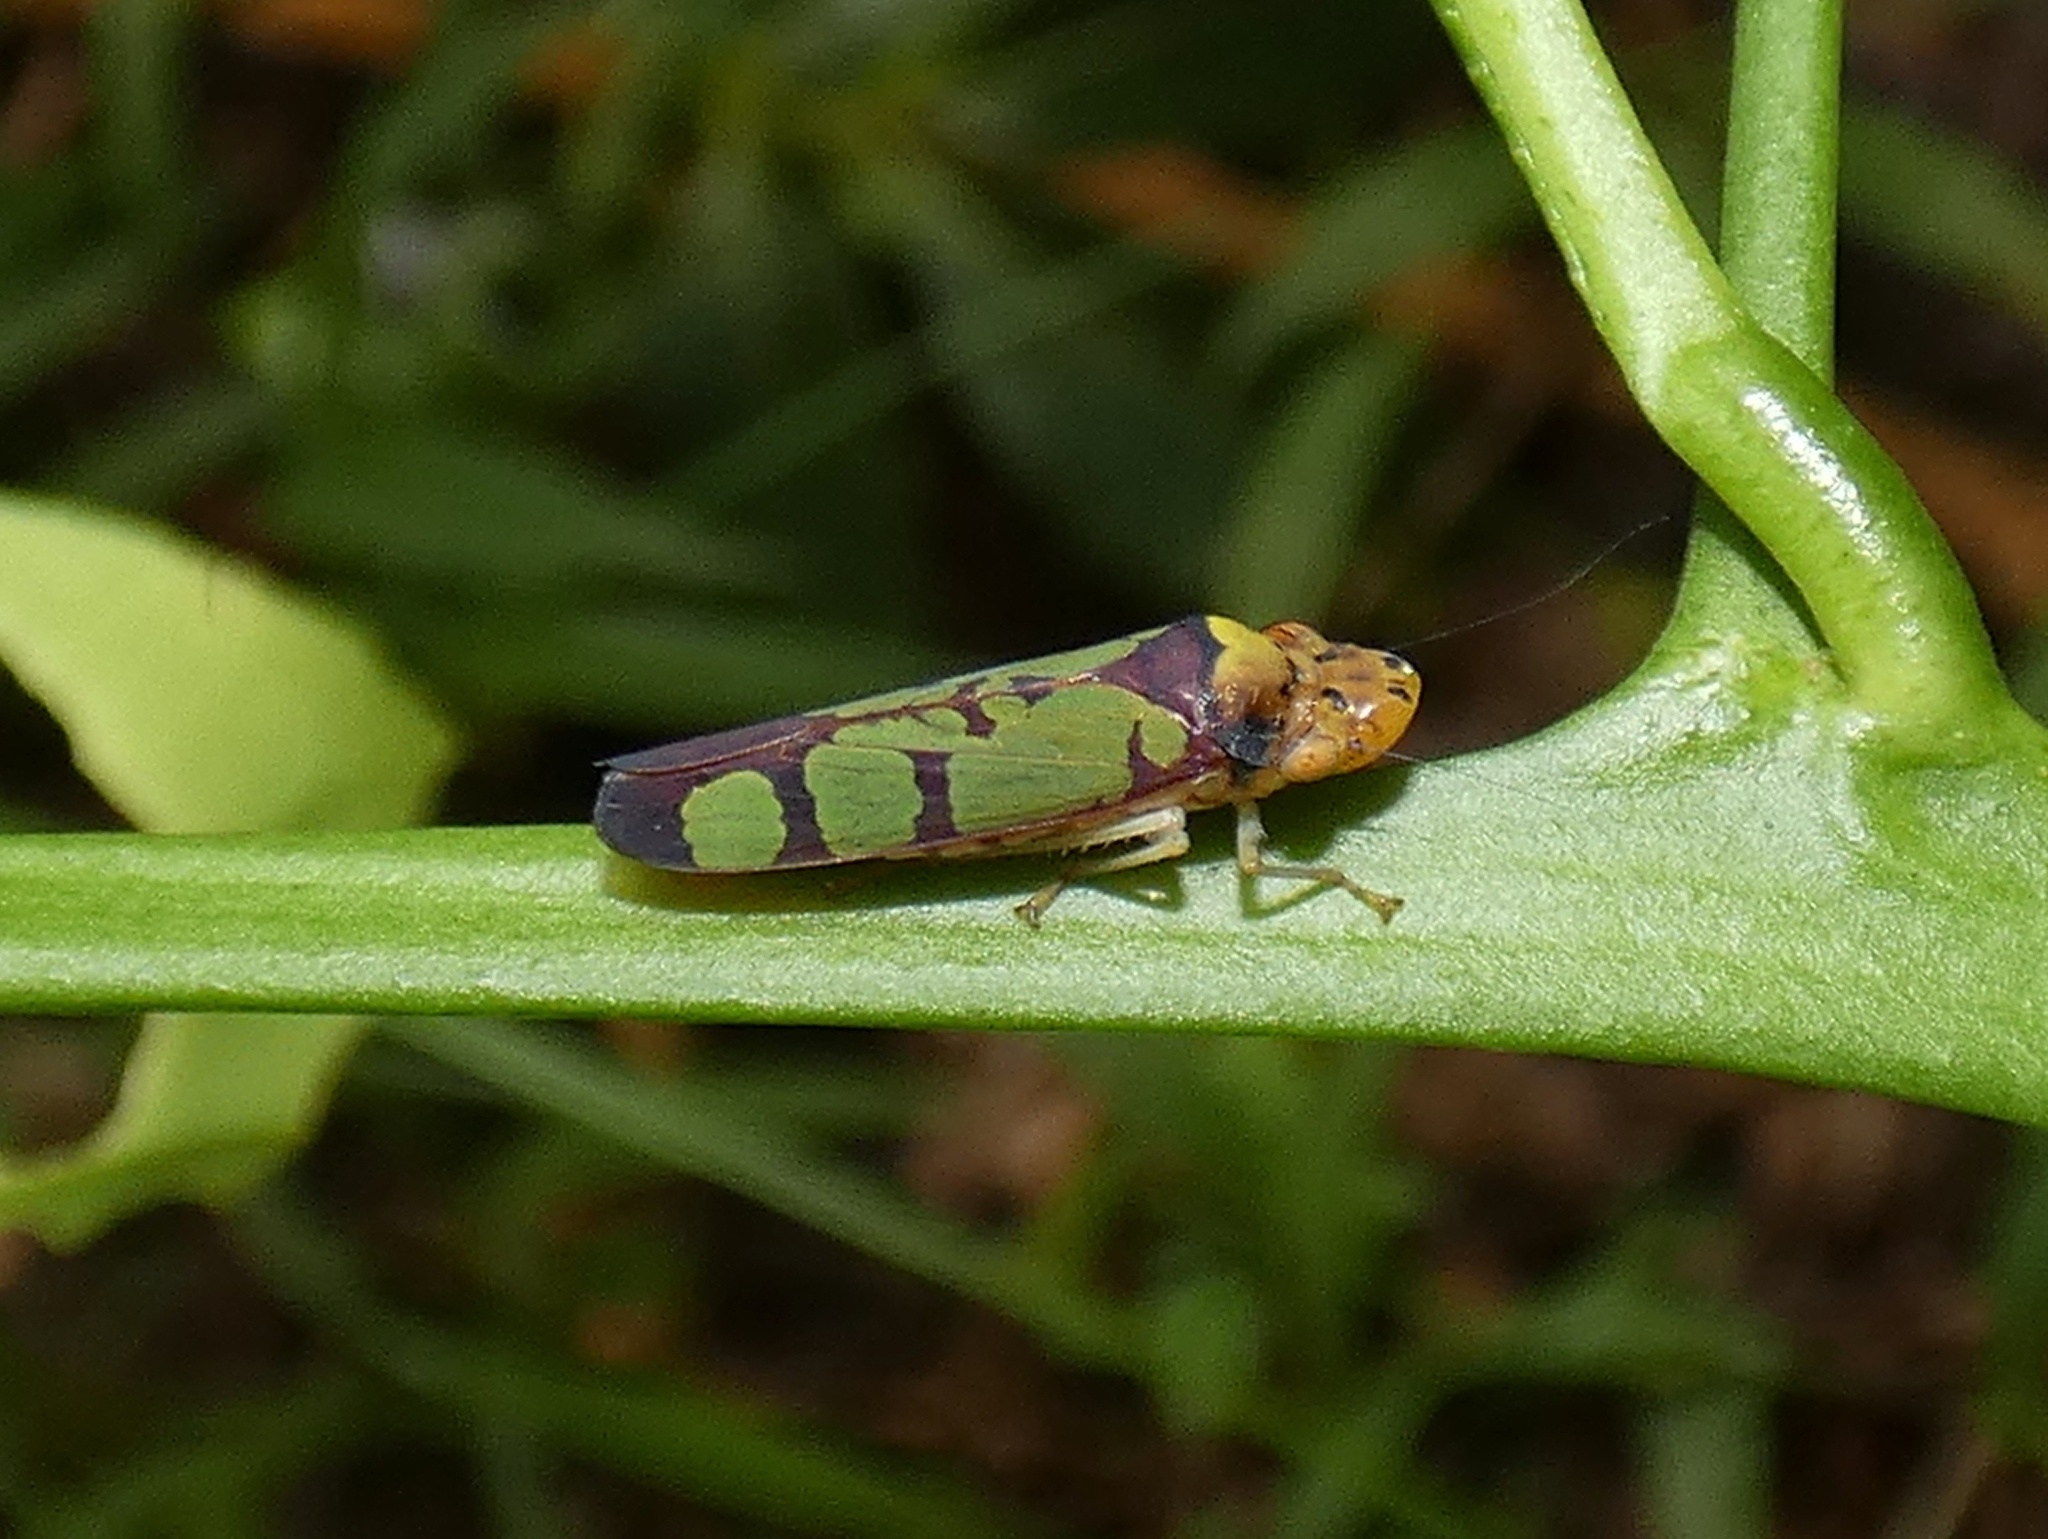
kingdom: Animalia
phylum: Arthropoda
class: Insecta
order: Hemiptera
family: Cicadellidae
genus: Paraulacizes
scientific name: Paraulacizes panamensis
